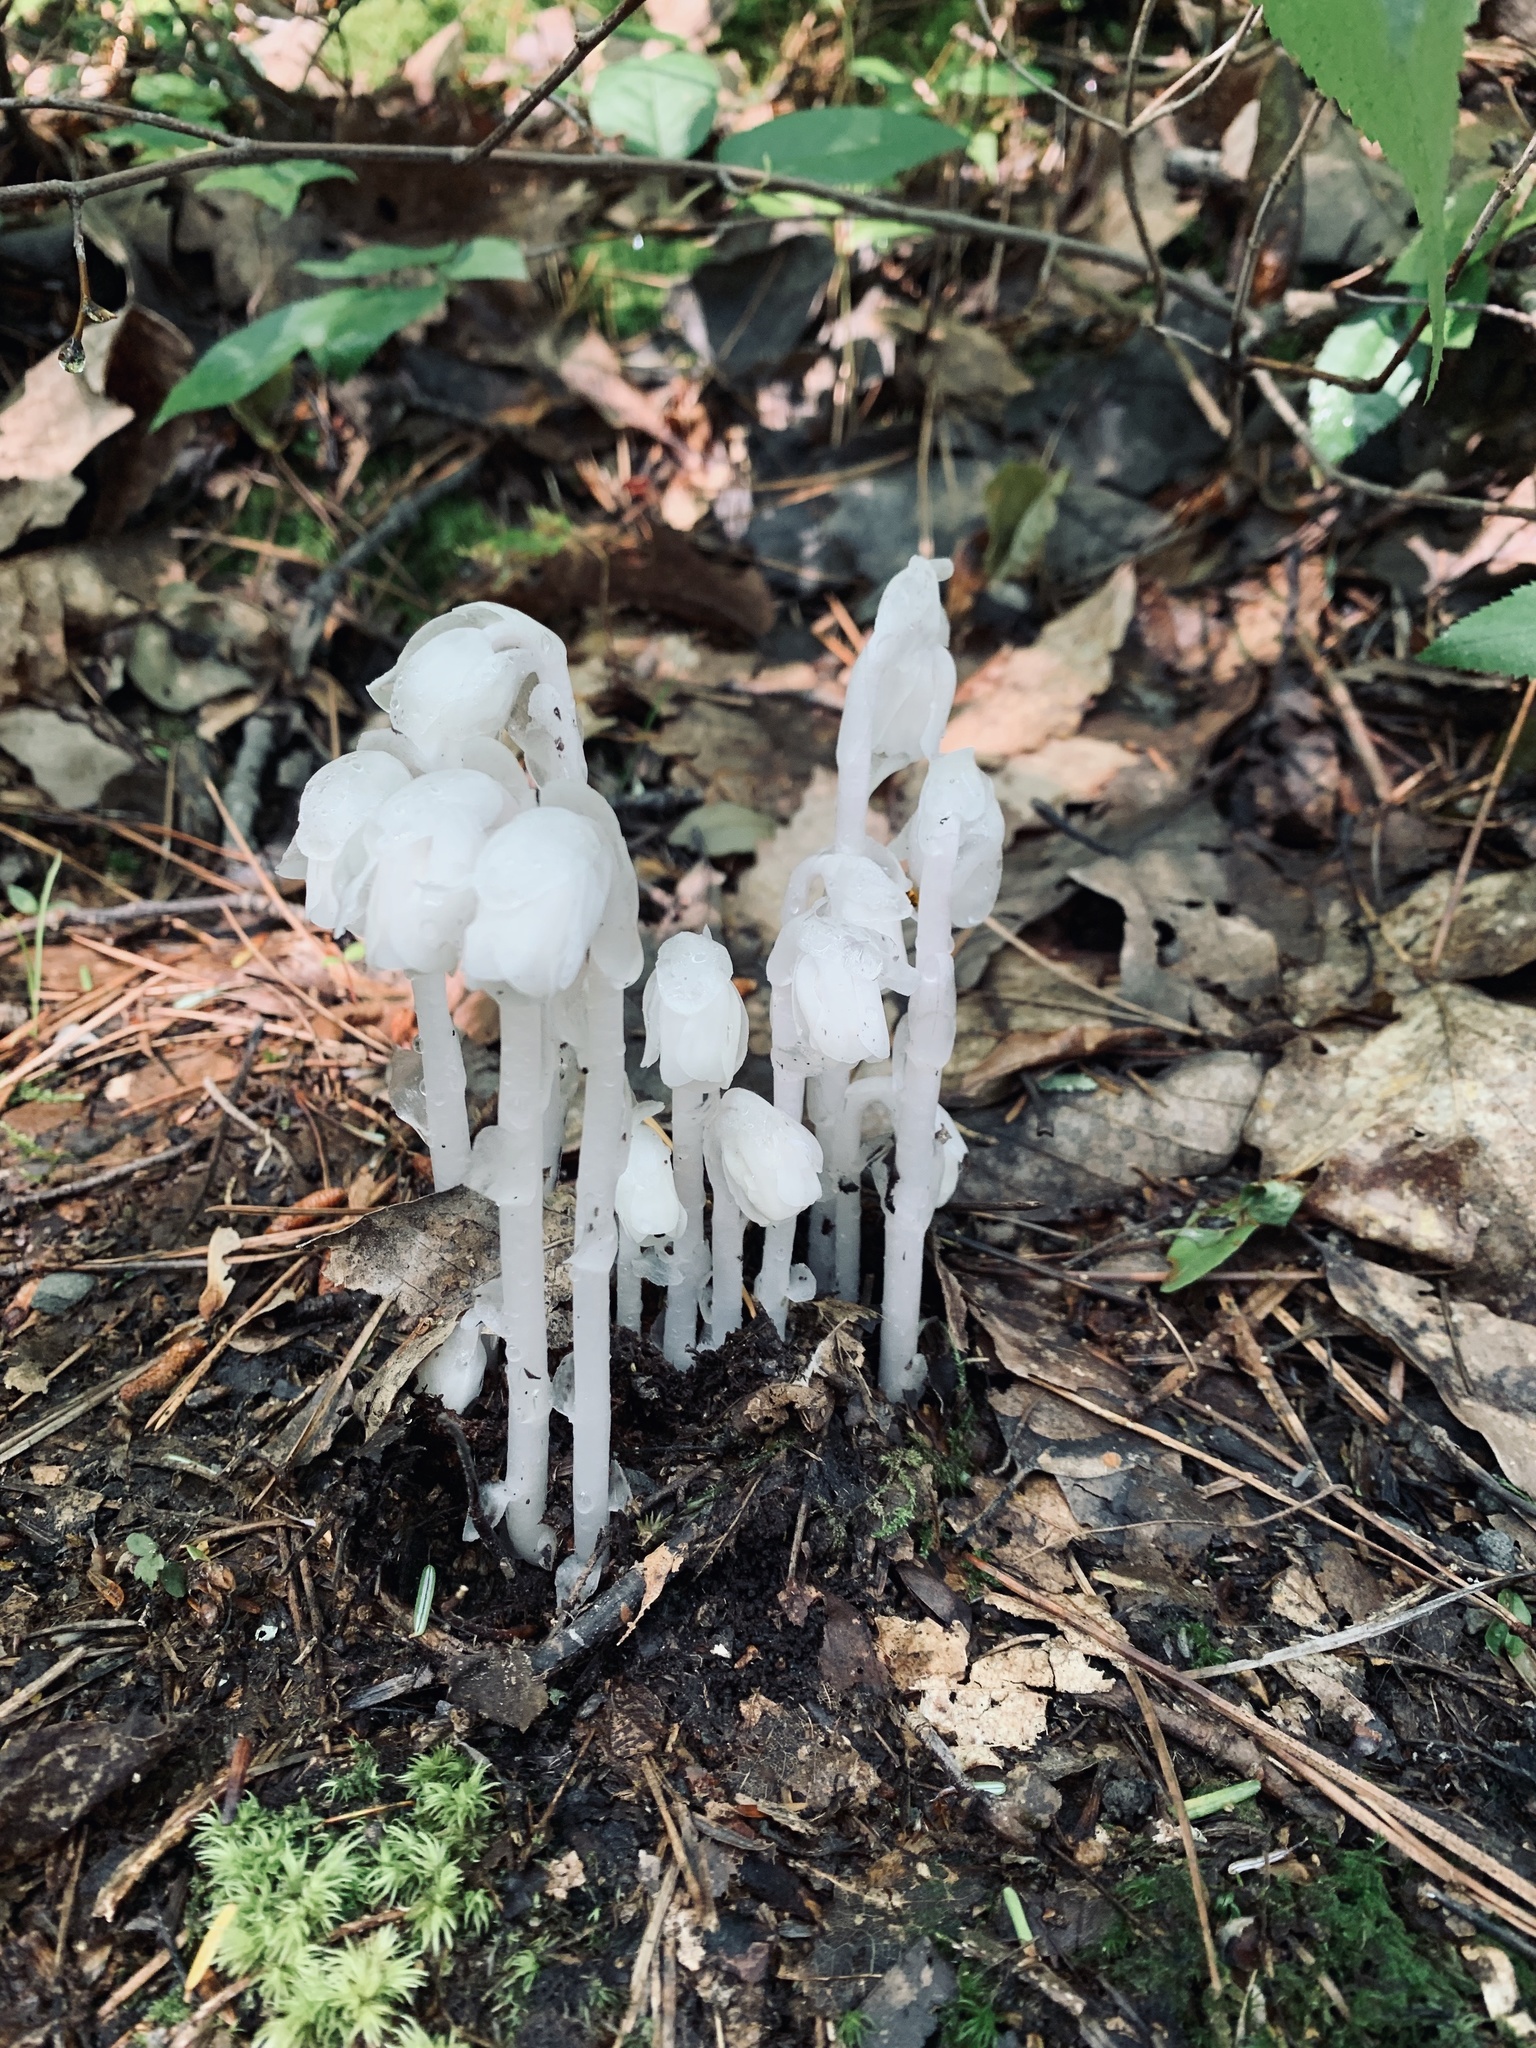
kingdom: Plantae
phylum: Tracheophyta
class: Magnoliopsida
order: Ericales
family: Ericaceae
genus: Monotropa
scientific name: Monotropa uniflora
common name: Convulsion root
